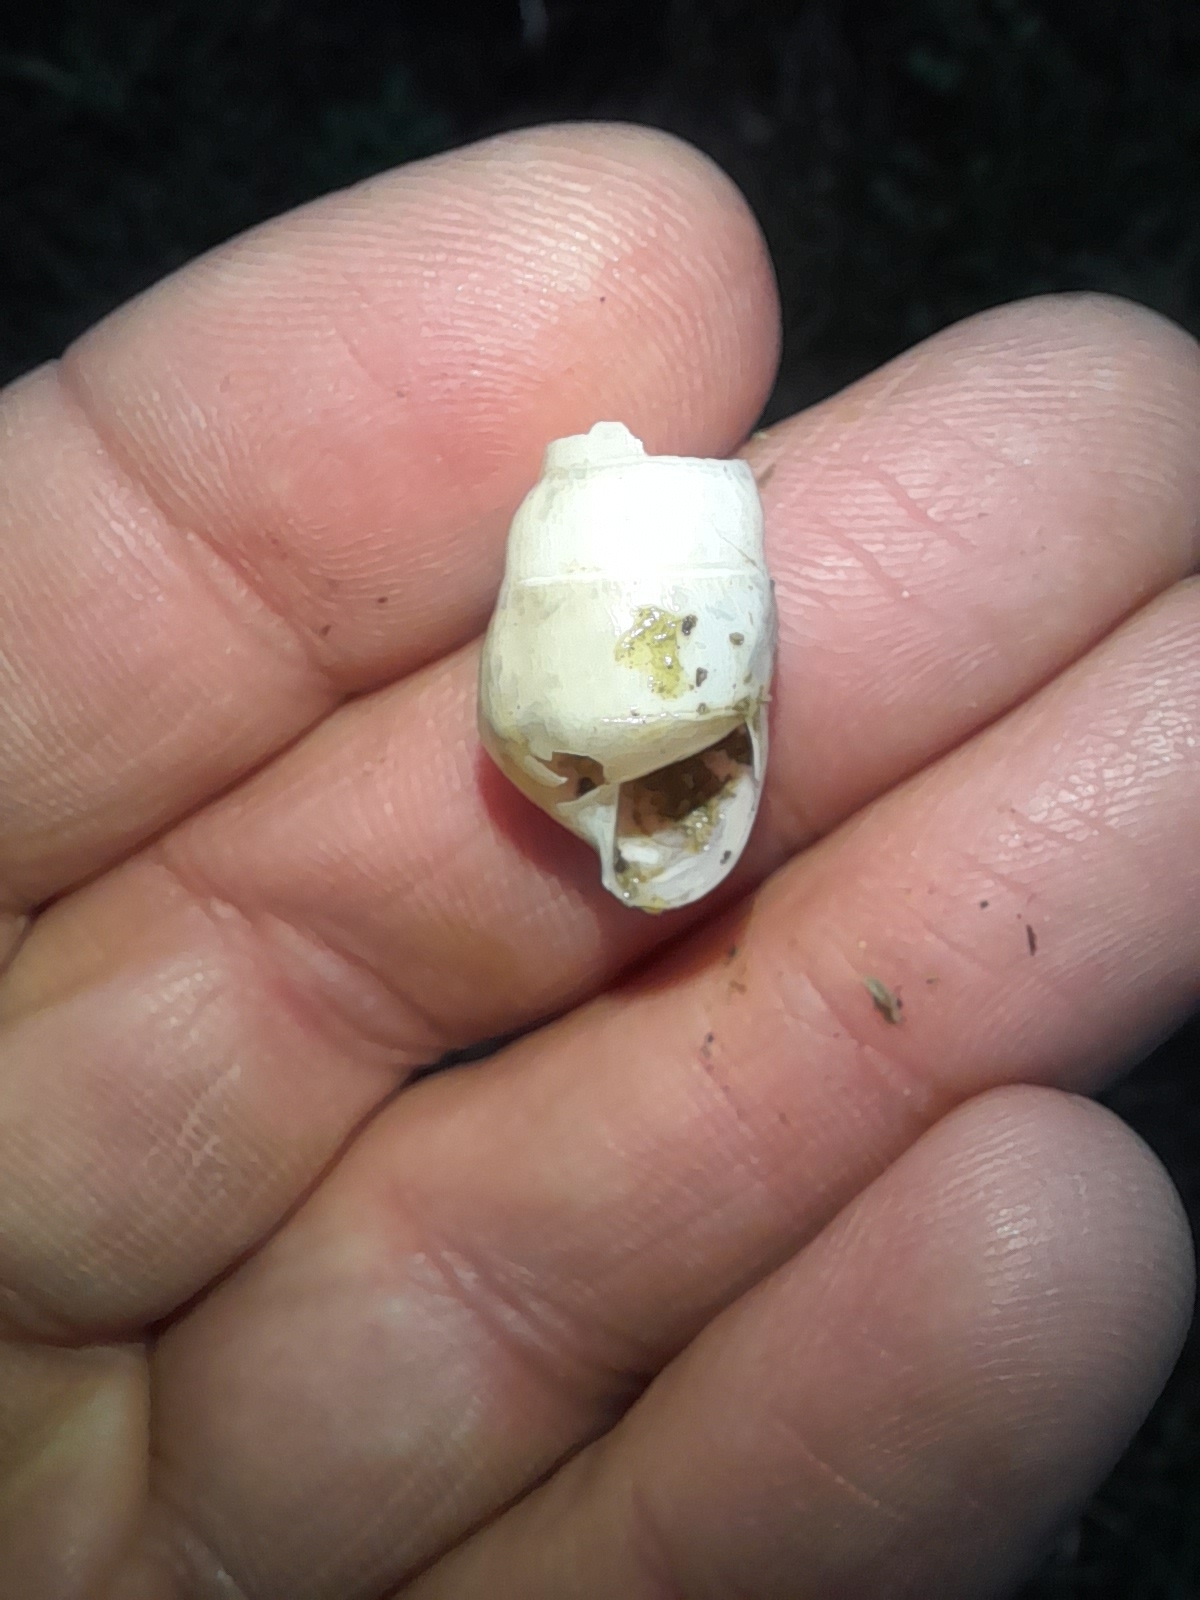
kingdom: Animalia
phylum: Mollusca
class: Gastropoda
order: Stylommatophora
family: Achatinidae
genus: Rumina
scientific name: Rumina decollata
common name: Decollate snail
